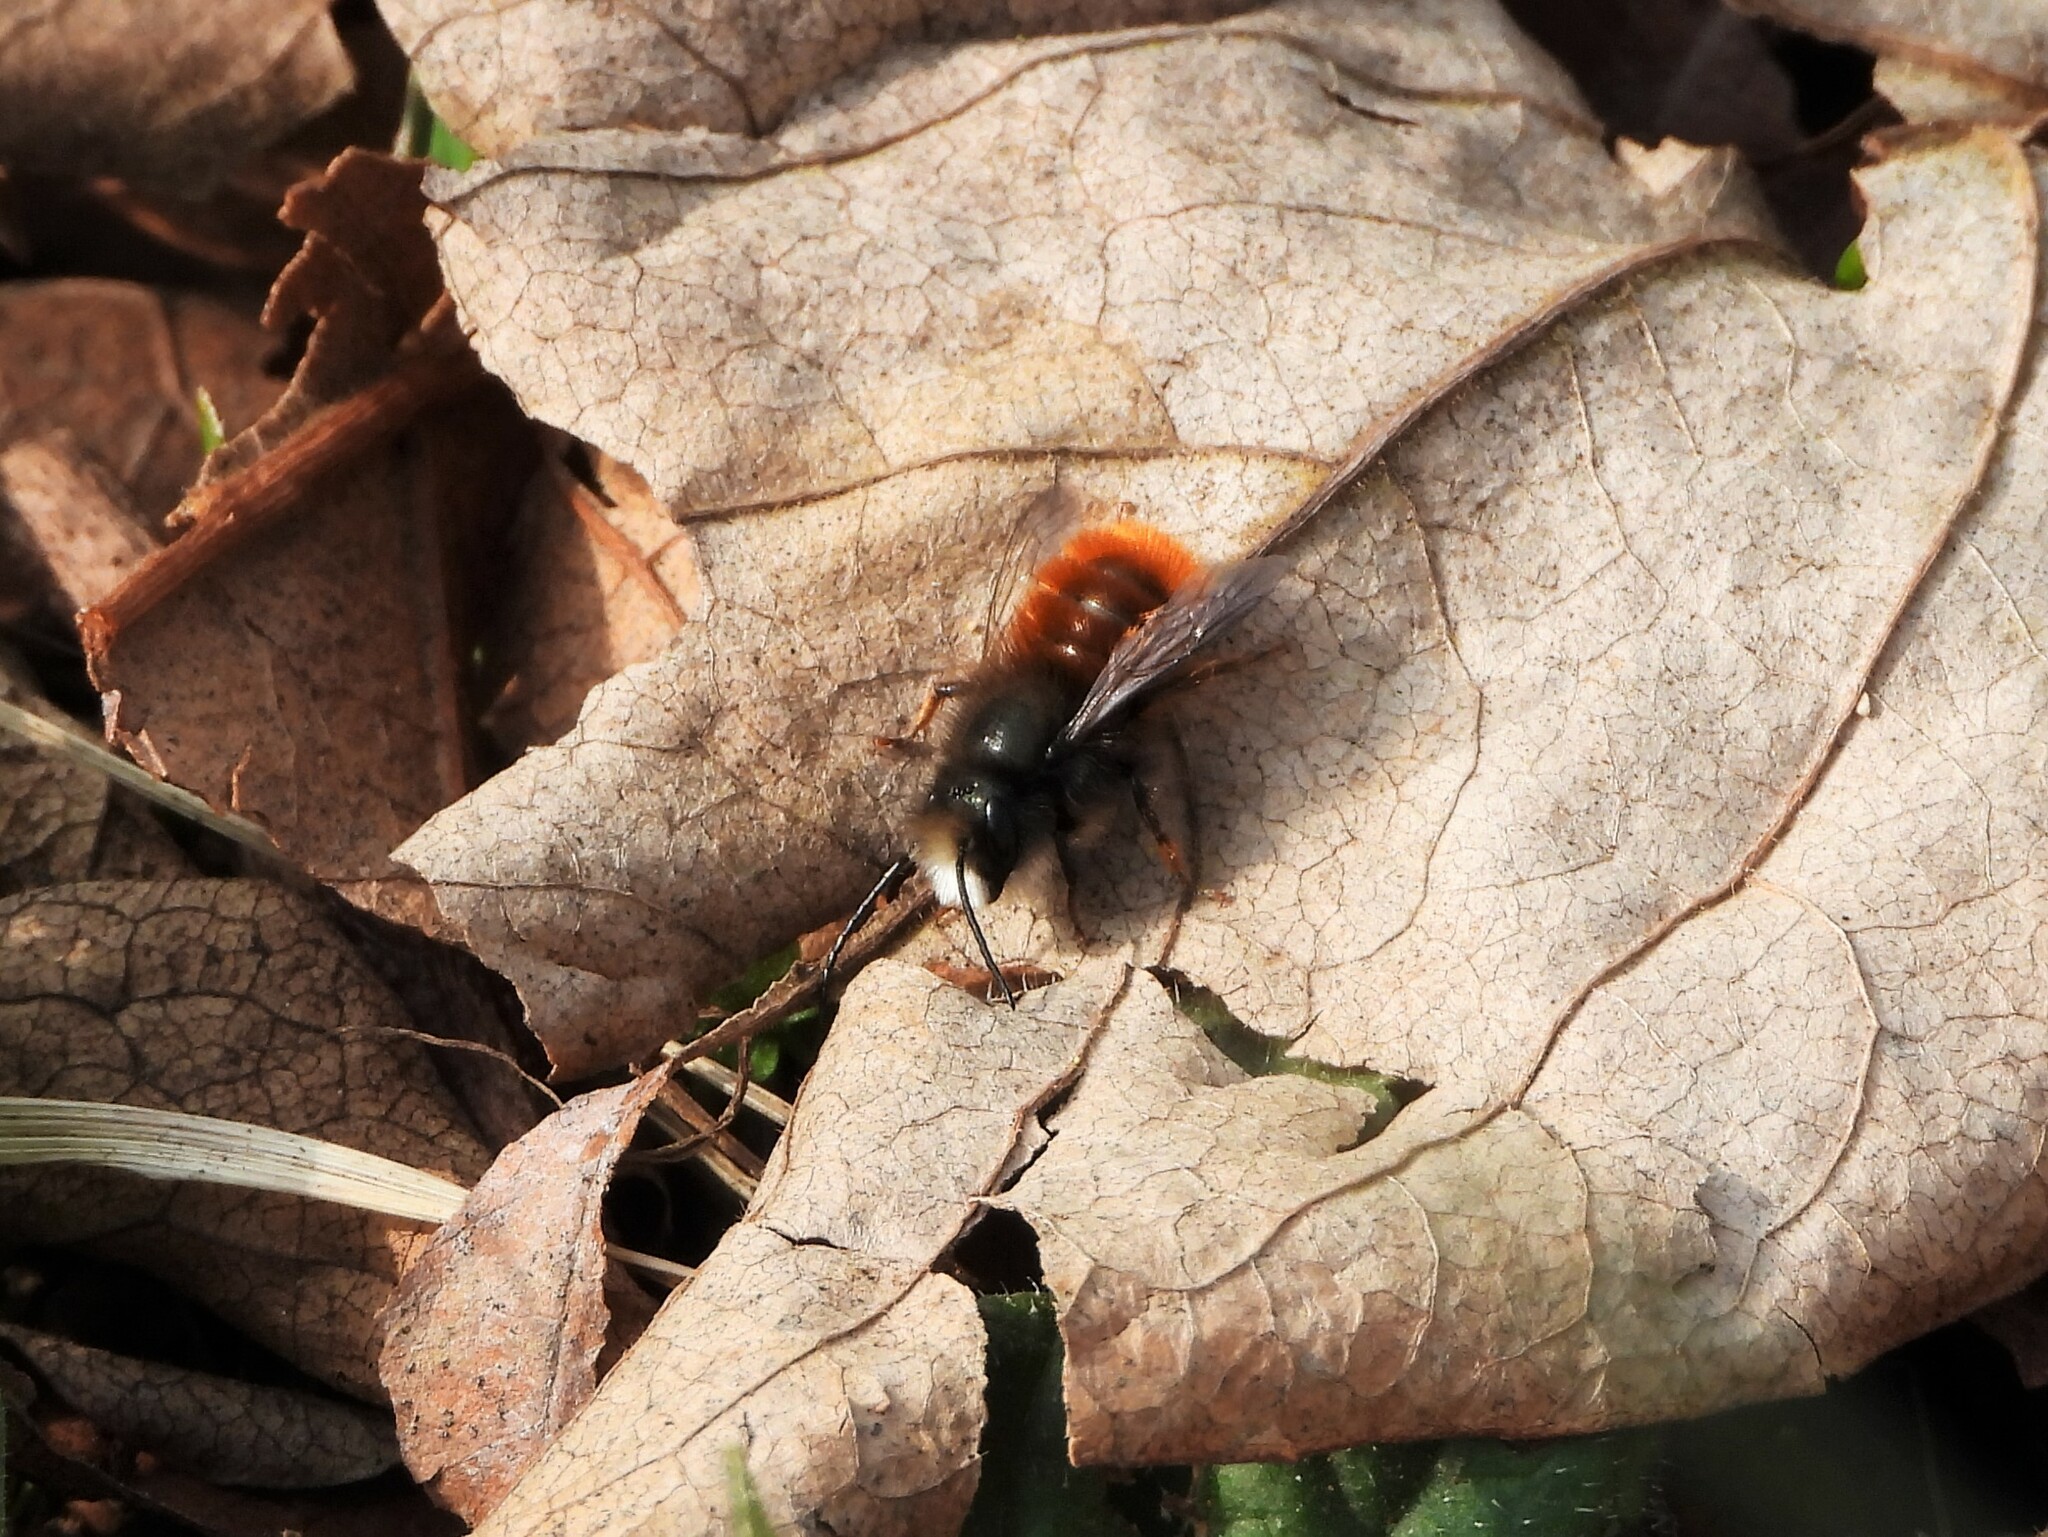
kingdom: Animalia
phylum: Arthropoda
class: Insecta
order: Hymenoptera
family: Megachilidae
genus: Osmia
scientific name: Osmia cornuta
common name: Mason bee
